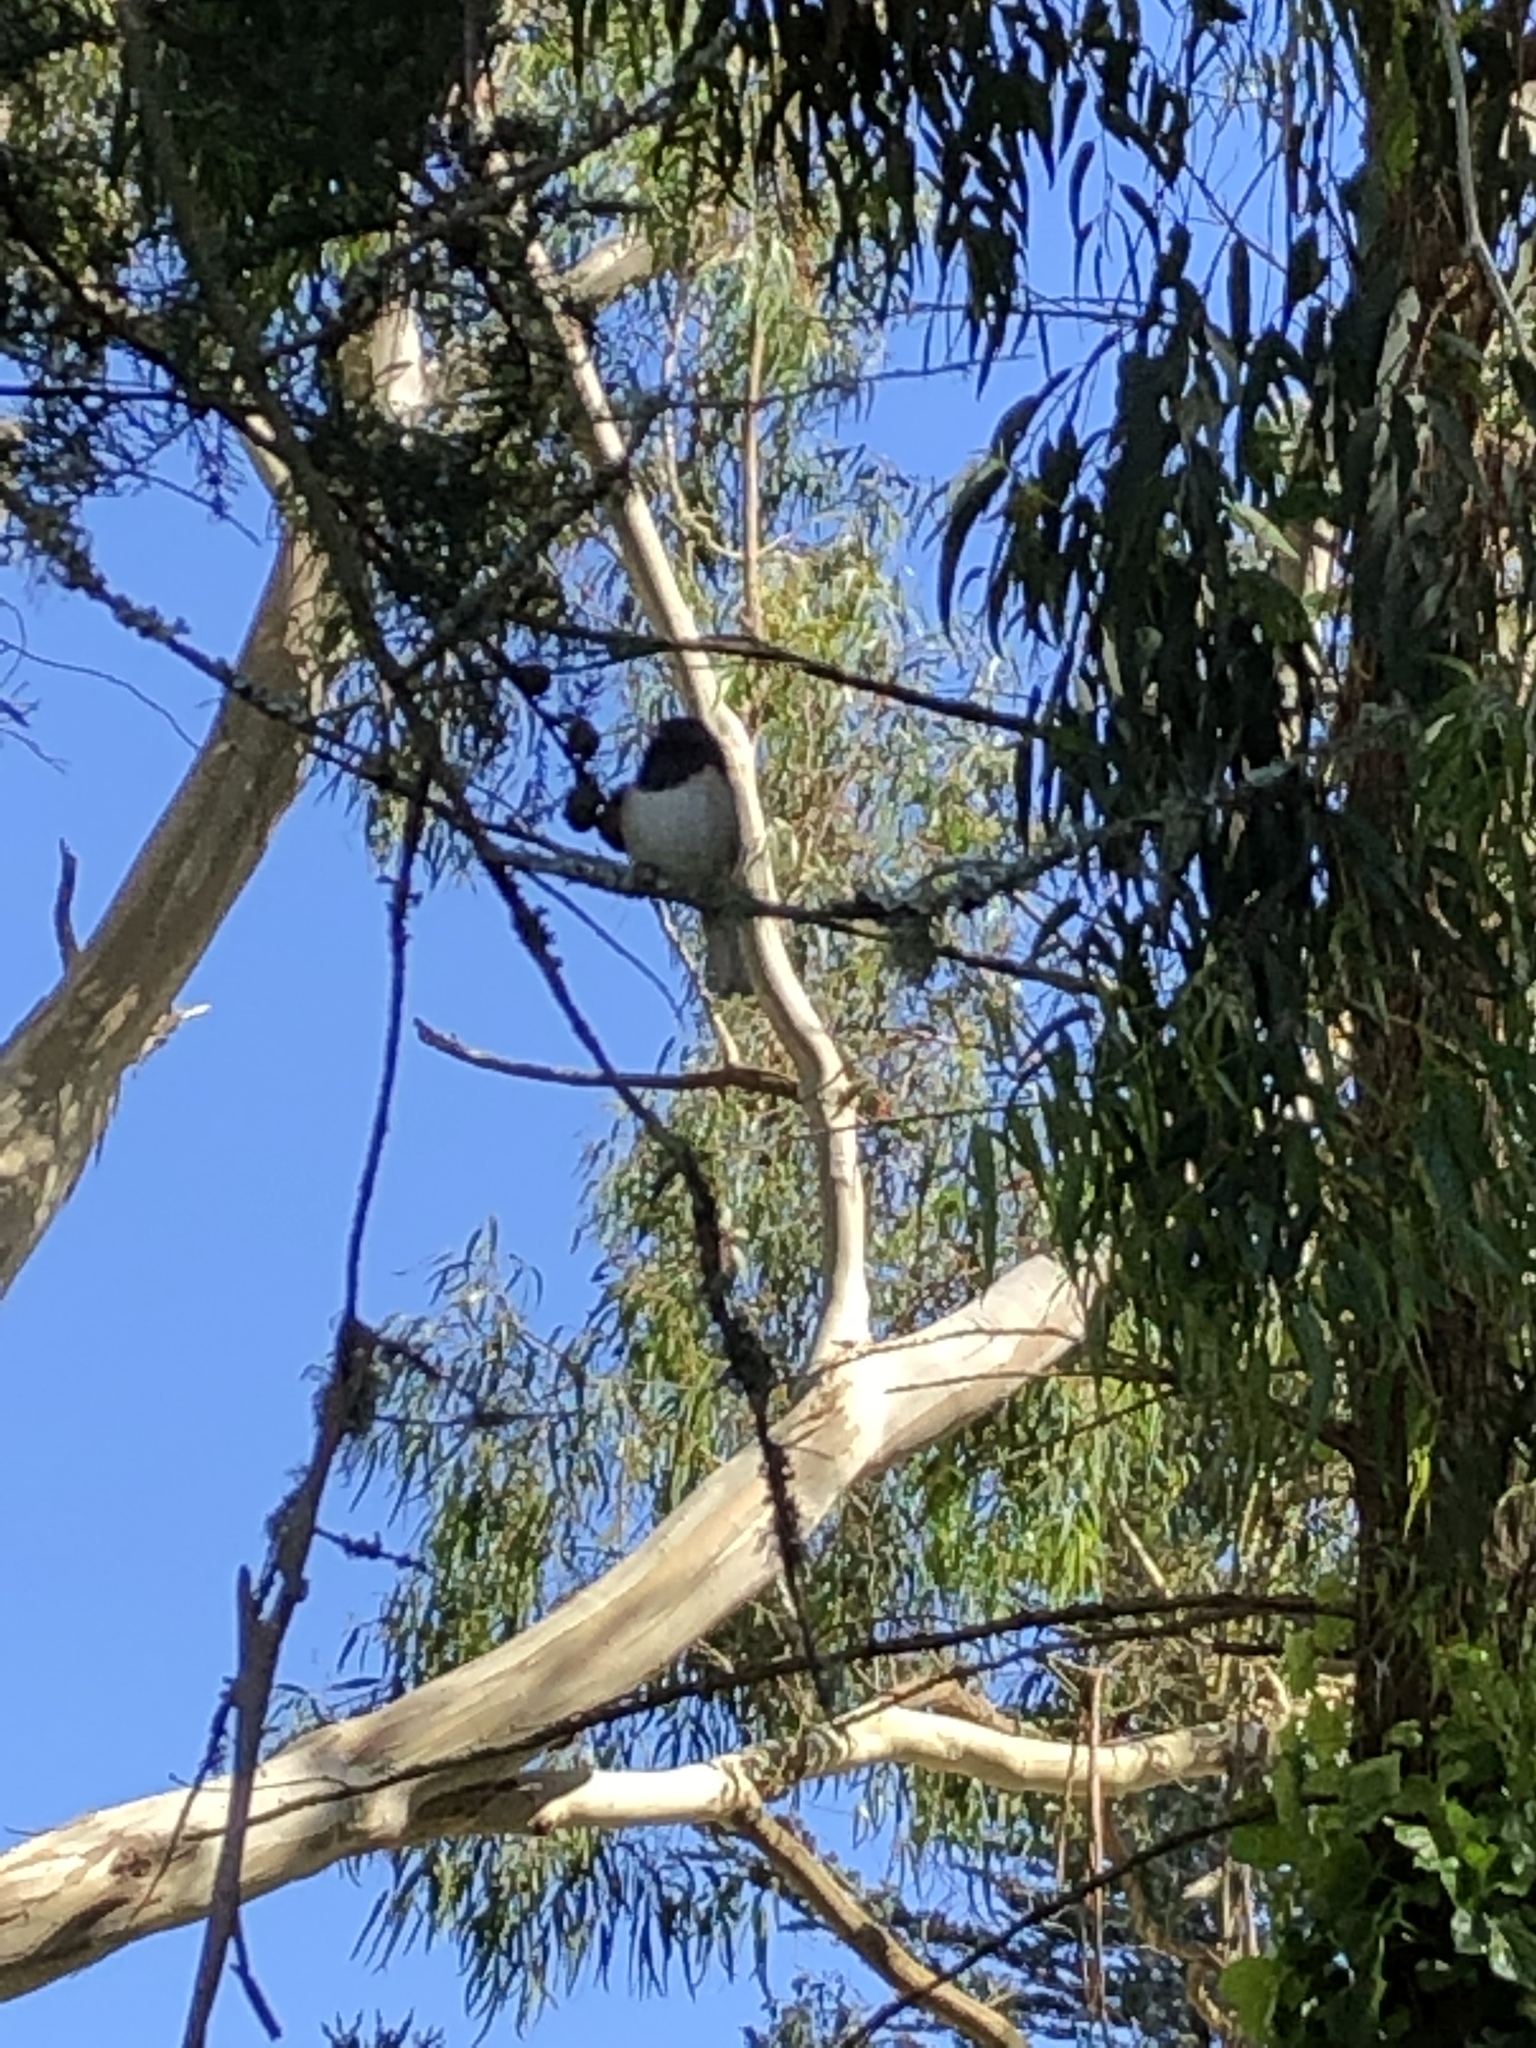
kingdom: Animalia
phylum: Chordata
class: Aves
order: Passeriformes
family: Passerellidae
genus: Junco
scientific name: Junco hyemalis
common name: Dark-eyed junco
